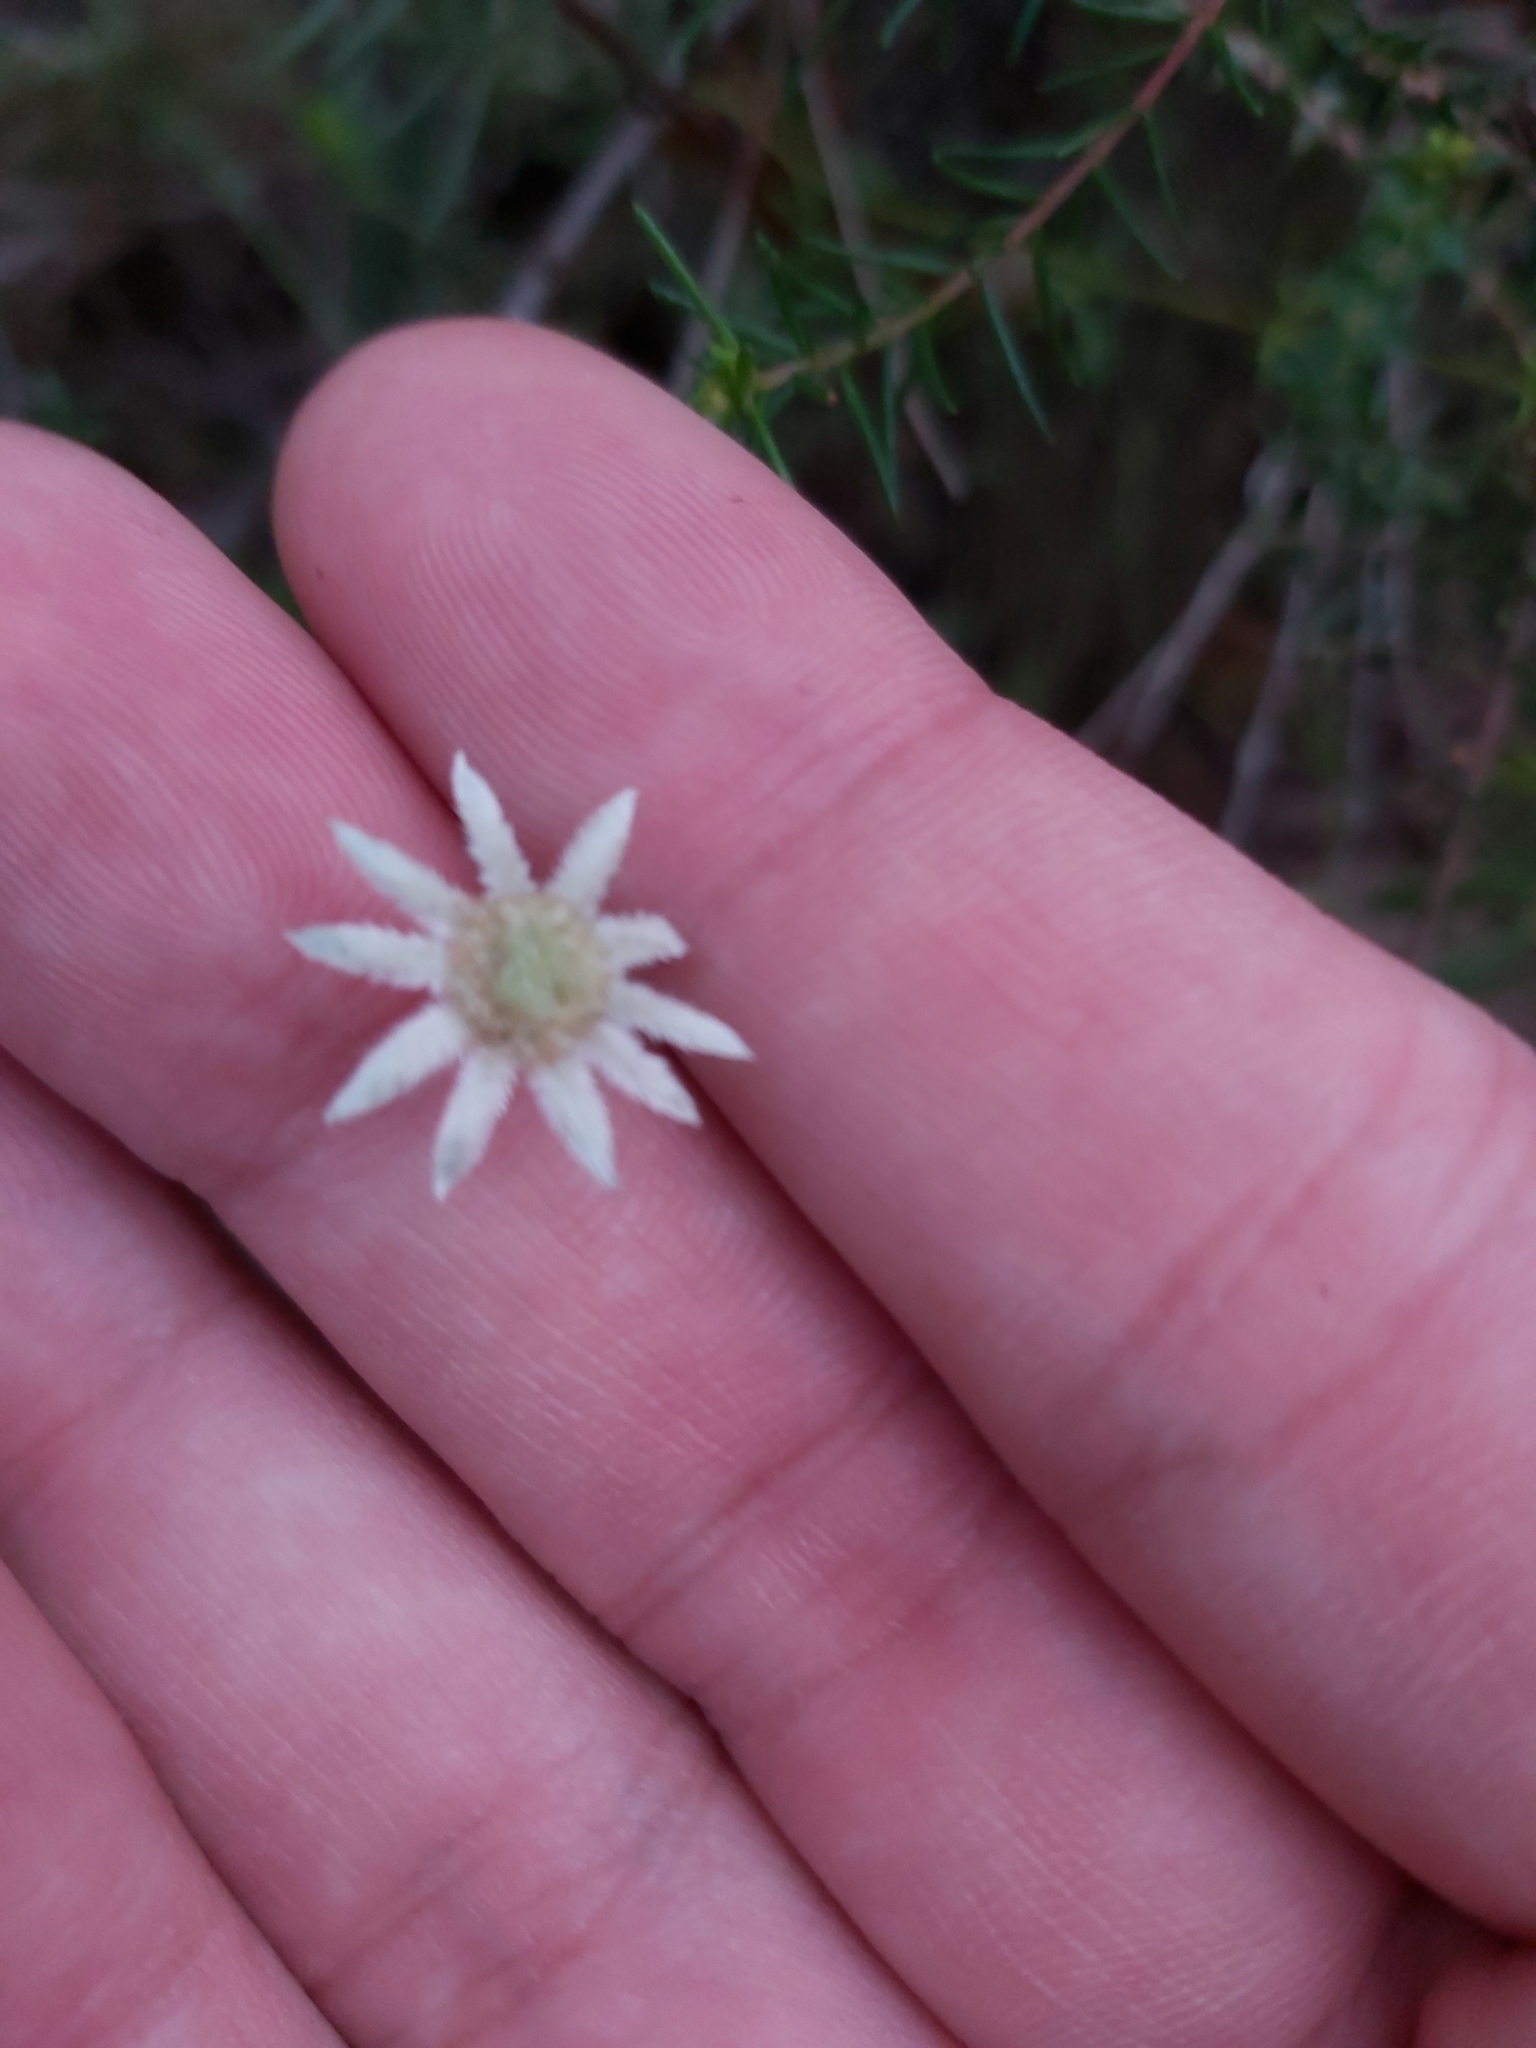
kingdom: Plantae
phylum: Tracheophyta
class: Magnoliopsida
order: Apiales
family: Apiaceae
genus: Actinotus
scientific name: Actinotus minor
